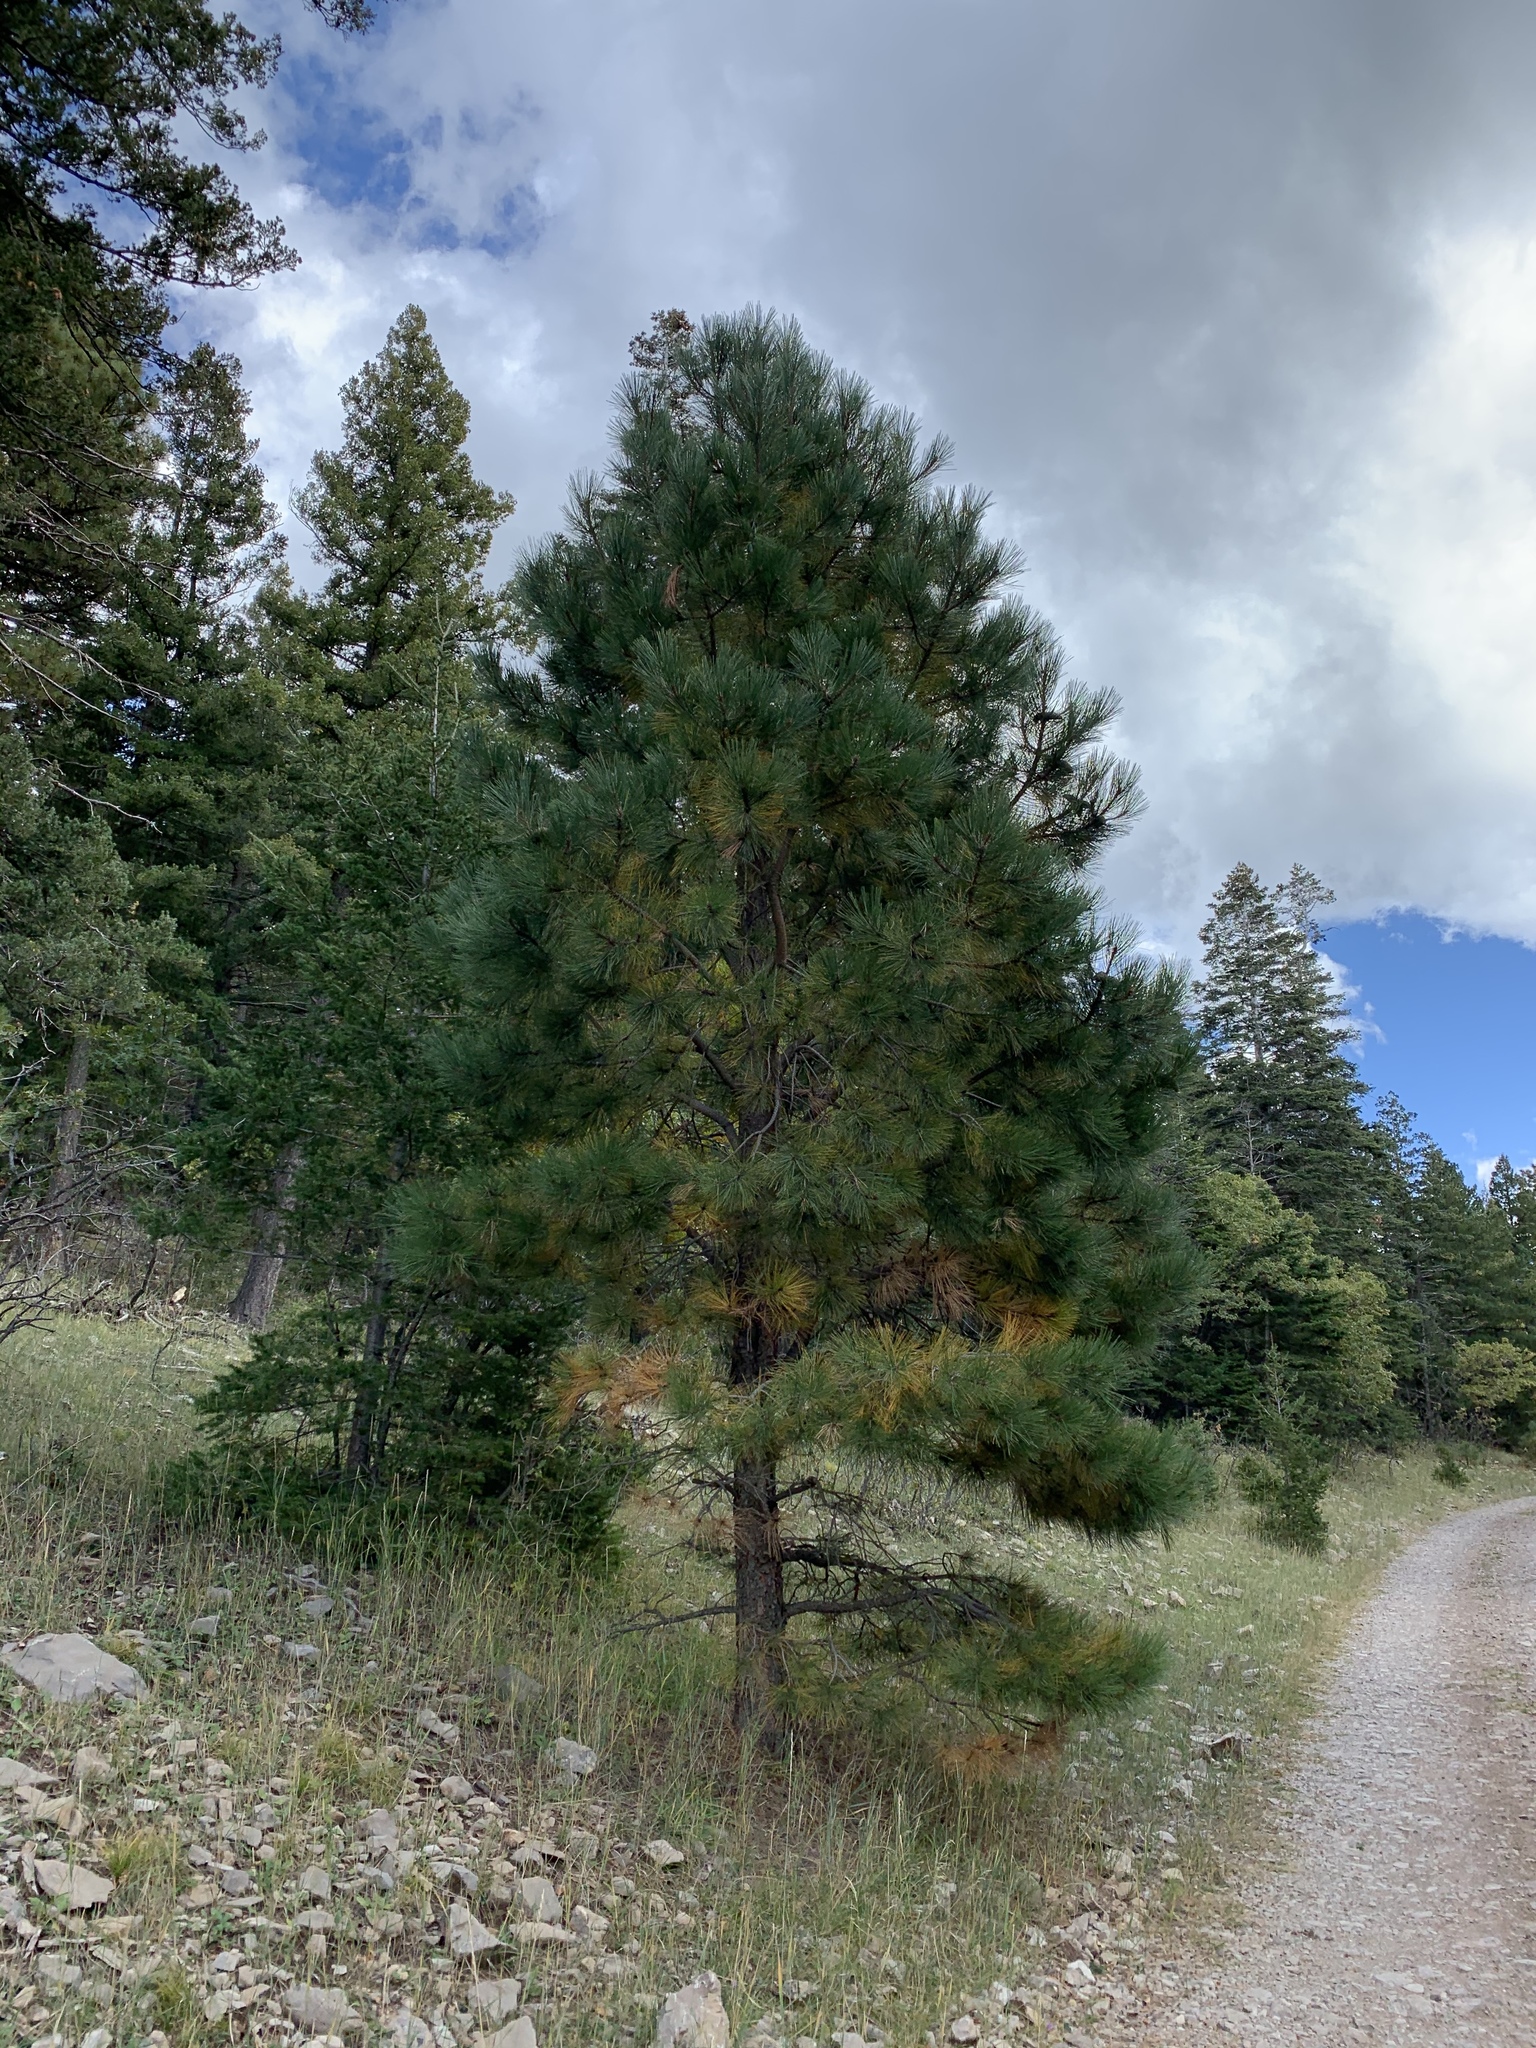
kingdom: Plantae
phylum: Tracheophyta
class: Pinopsida
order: Pinales
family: Pinaceae
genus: Pinus
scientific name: Pinus ponderosa
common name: Western yellow-pine
